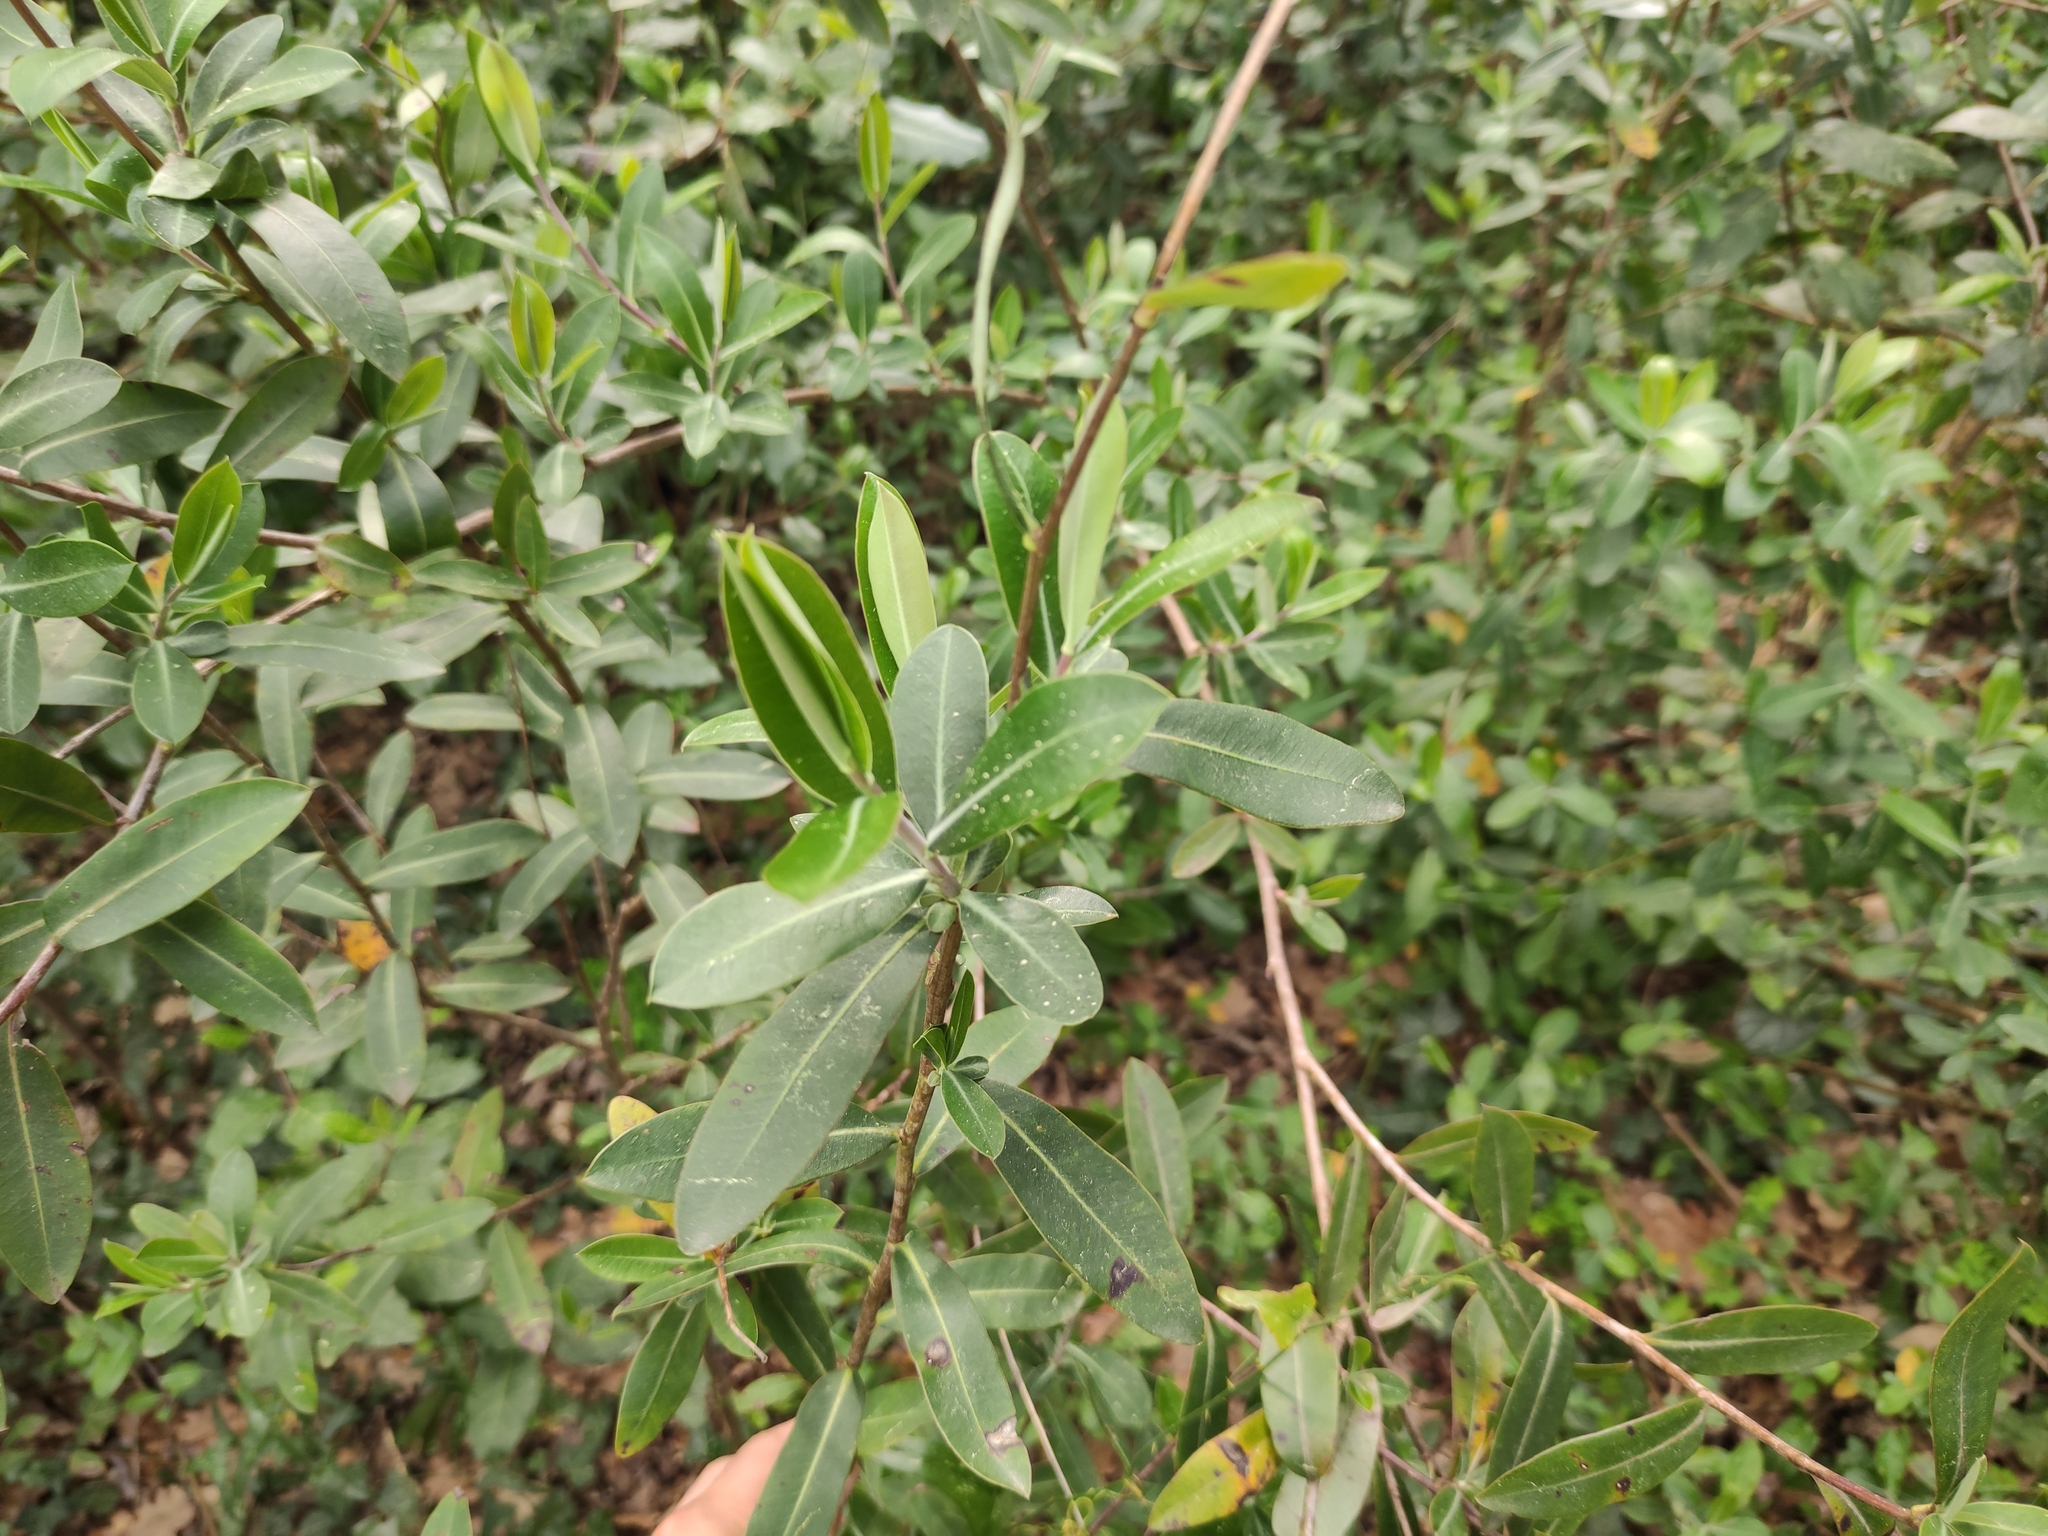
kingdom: Plantae
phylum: Tracheophyta
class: Magnoliopsida
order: Apiales
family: Apiaceae
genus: Bupleurum
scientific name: Bupleurum fruticosum
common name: Shrubby hare's-ear
